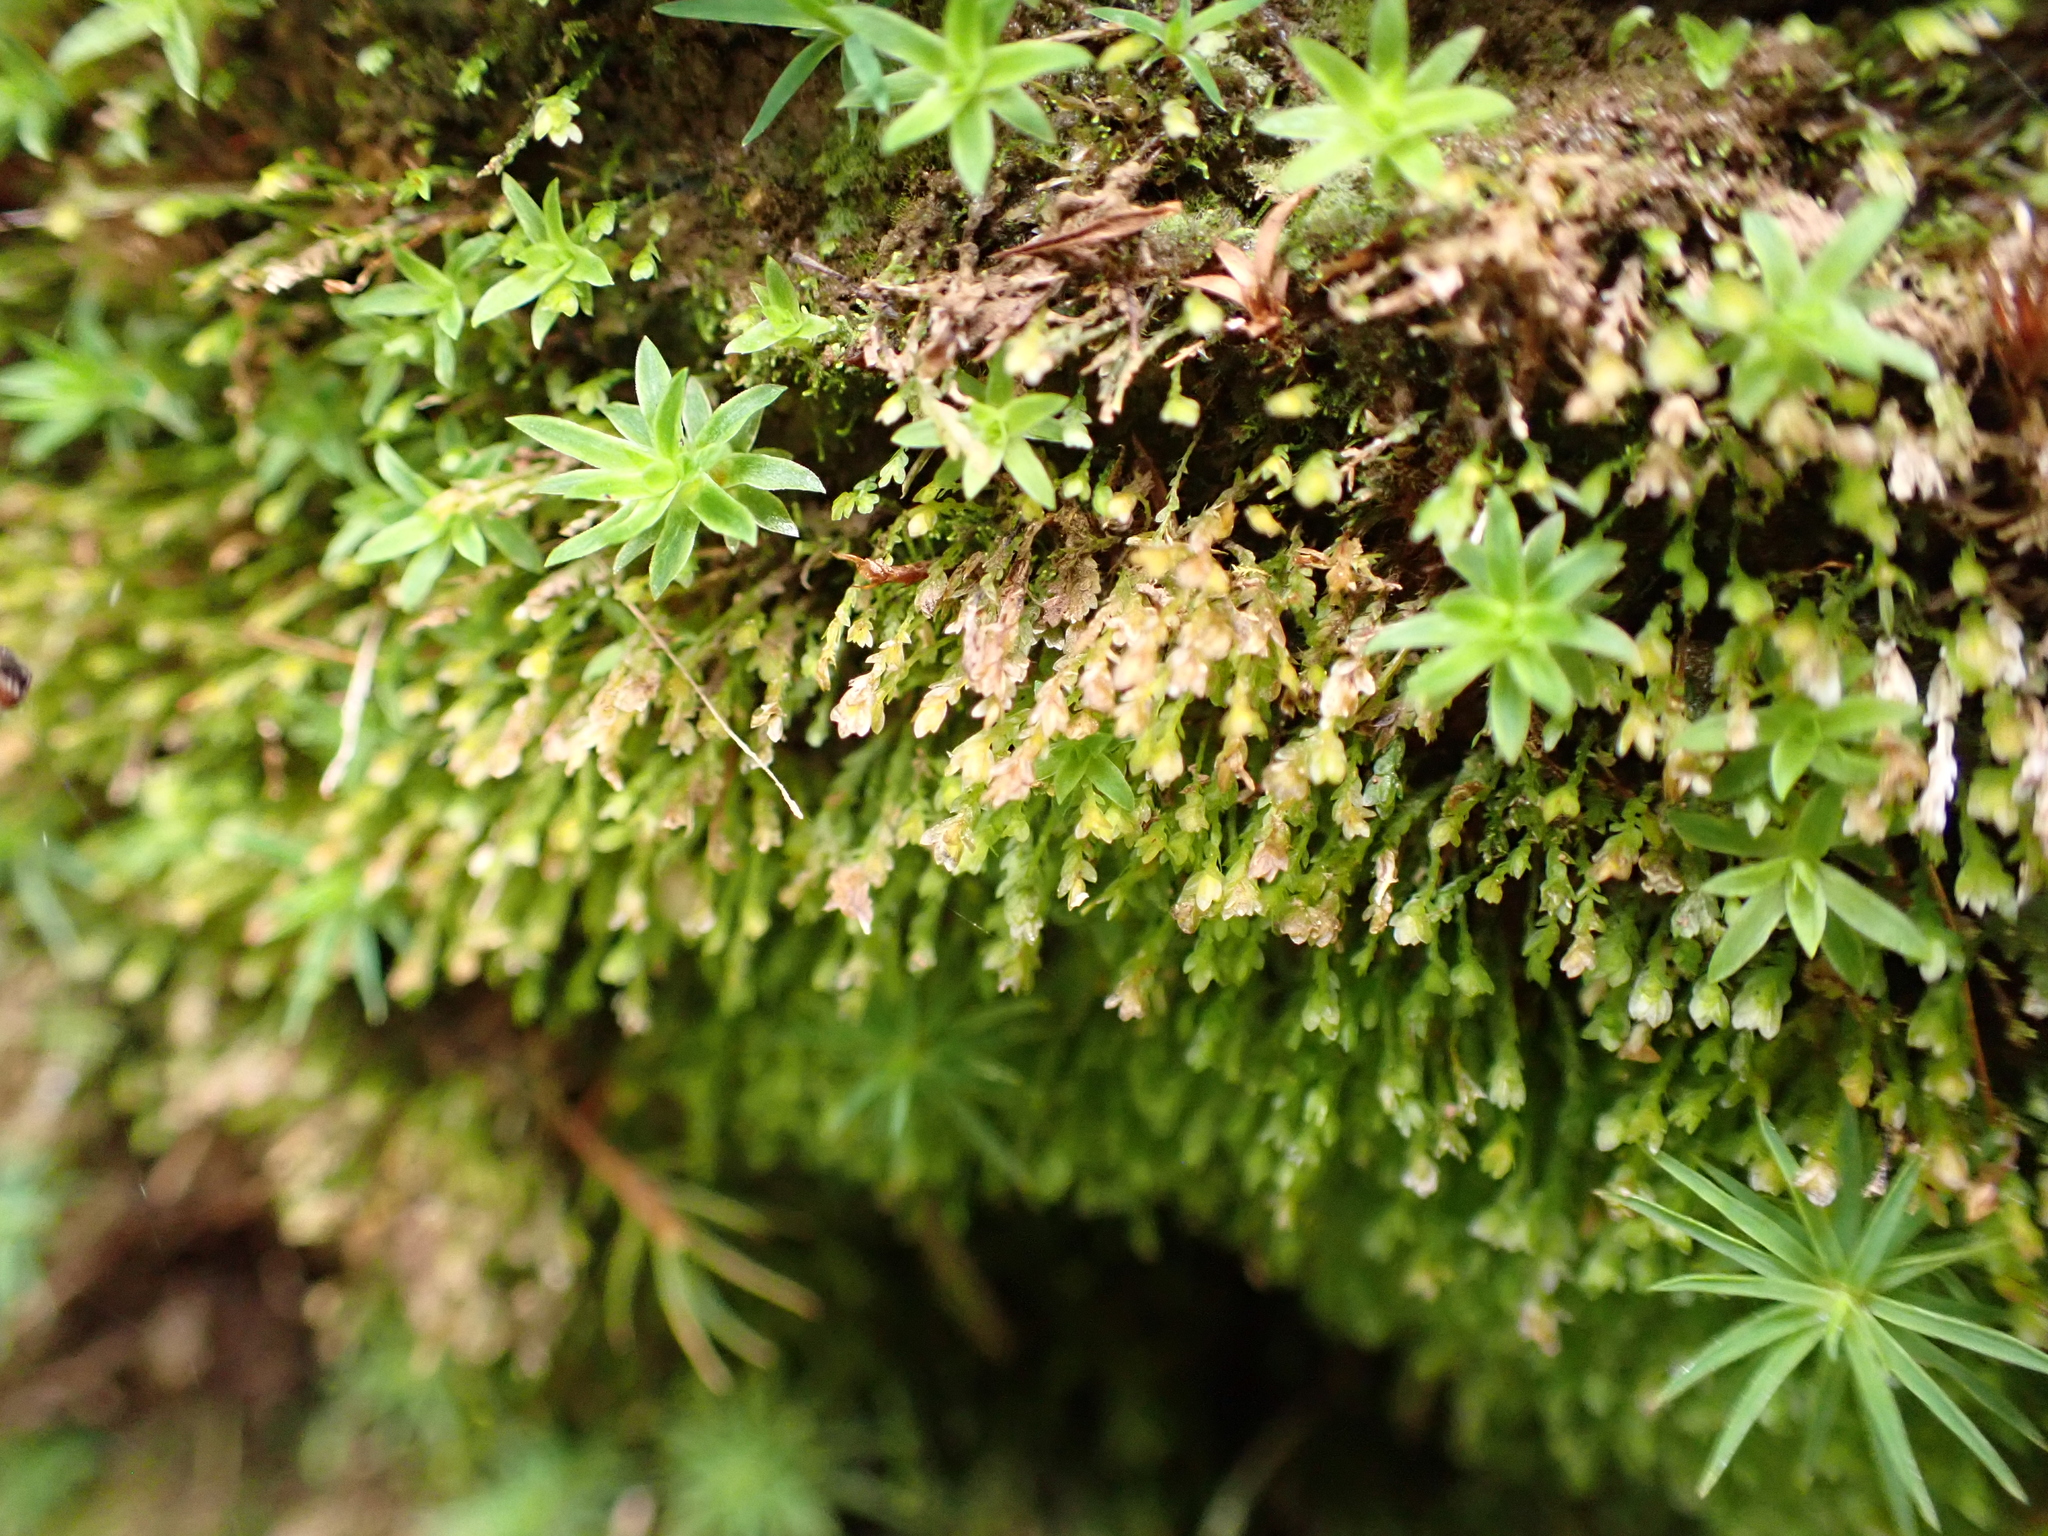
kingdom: Plantae
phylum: Bryophyta
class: Bryopsida
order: Pottiales
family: Mitteniaceae
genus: Mittenia
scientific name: Mittenia plumula
